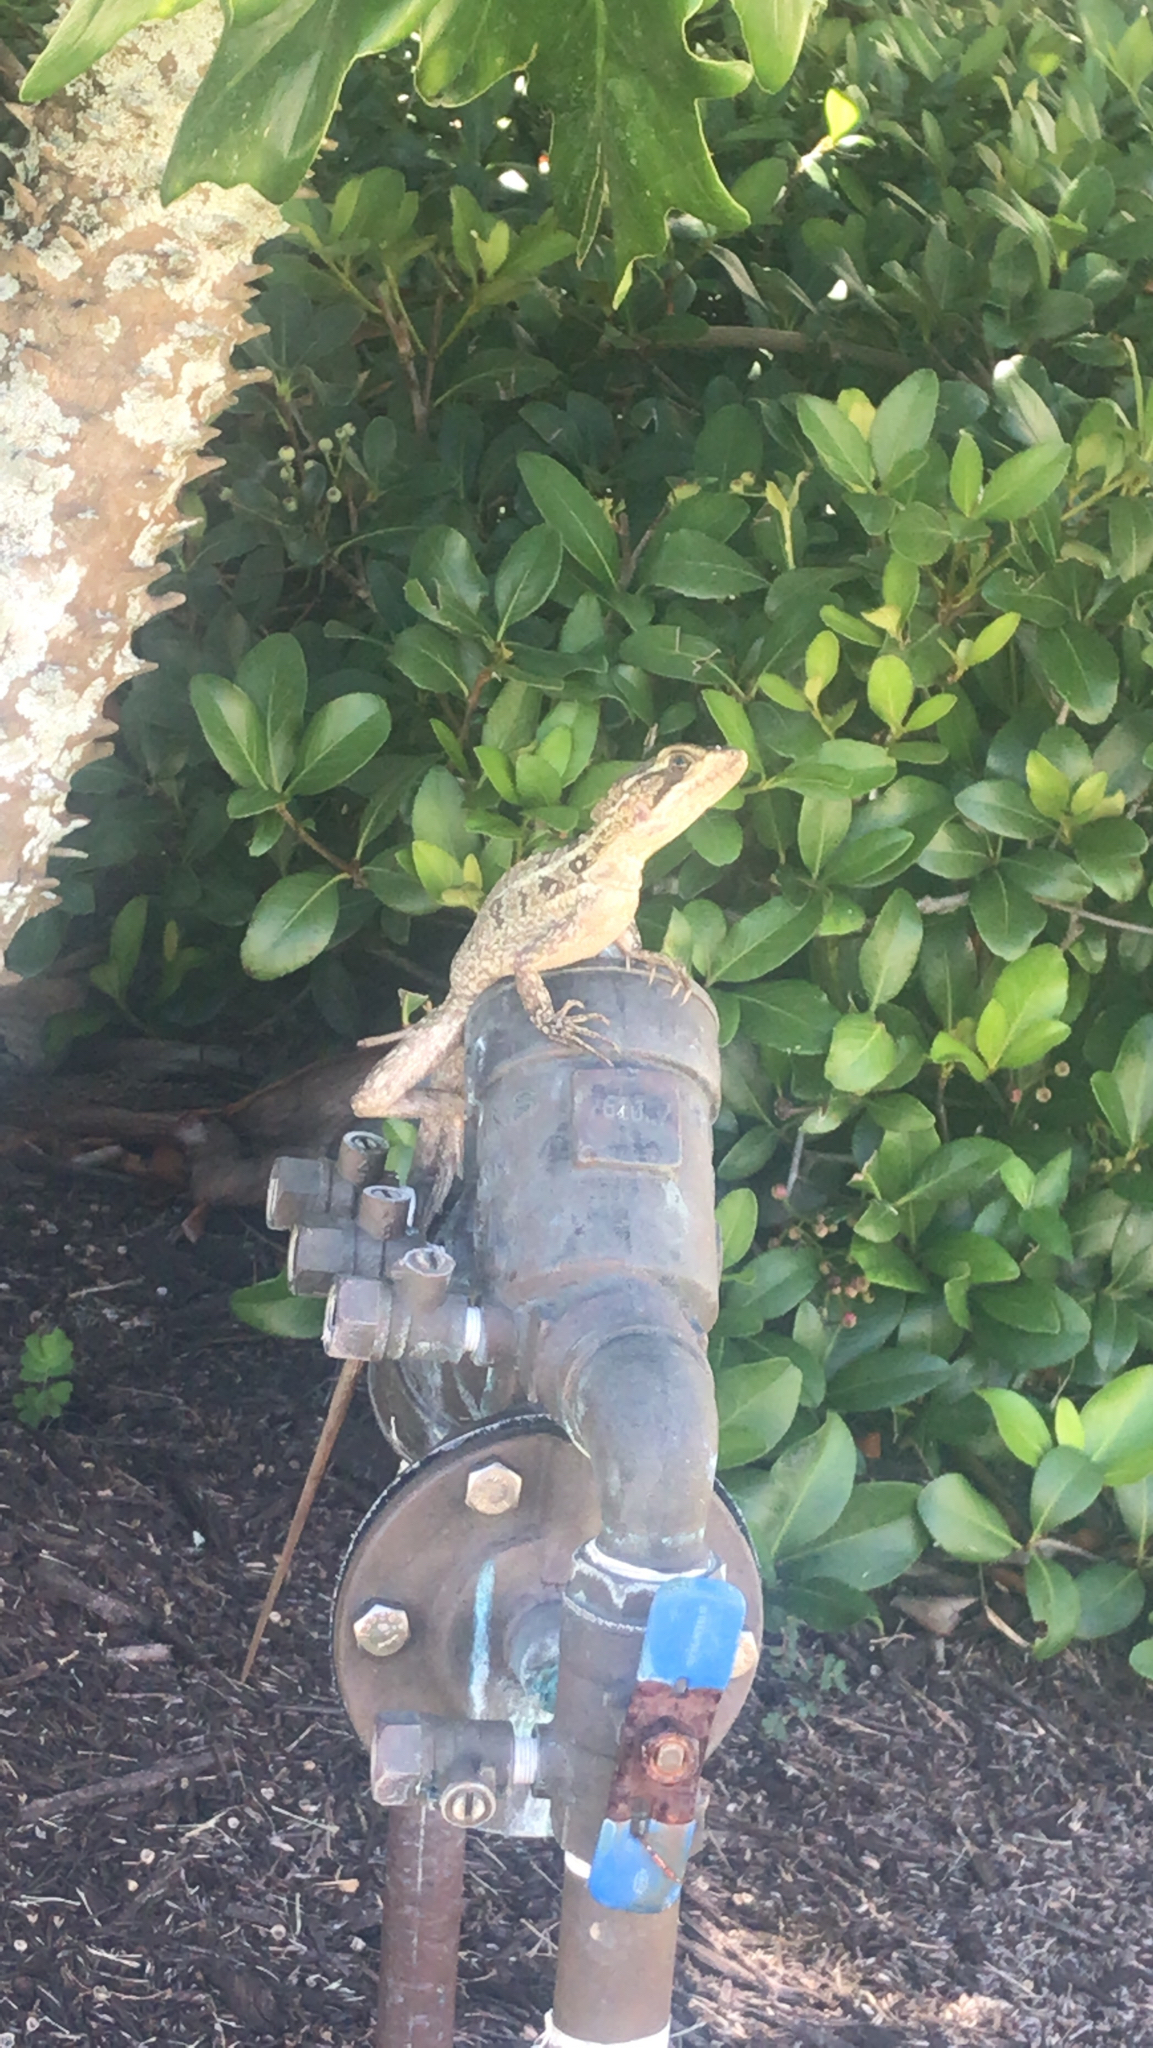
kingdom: Animalia
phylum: Chordata
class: Squamata
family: Corytophanidae
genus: Basiliscus
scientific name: Basiliscus vittatus
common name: Brown basilisk
